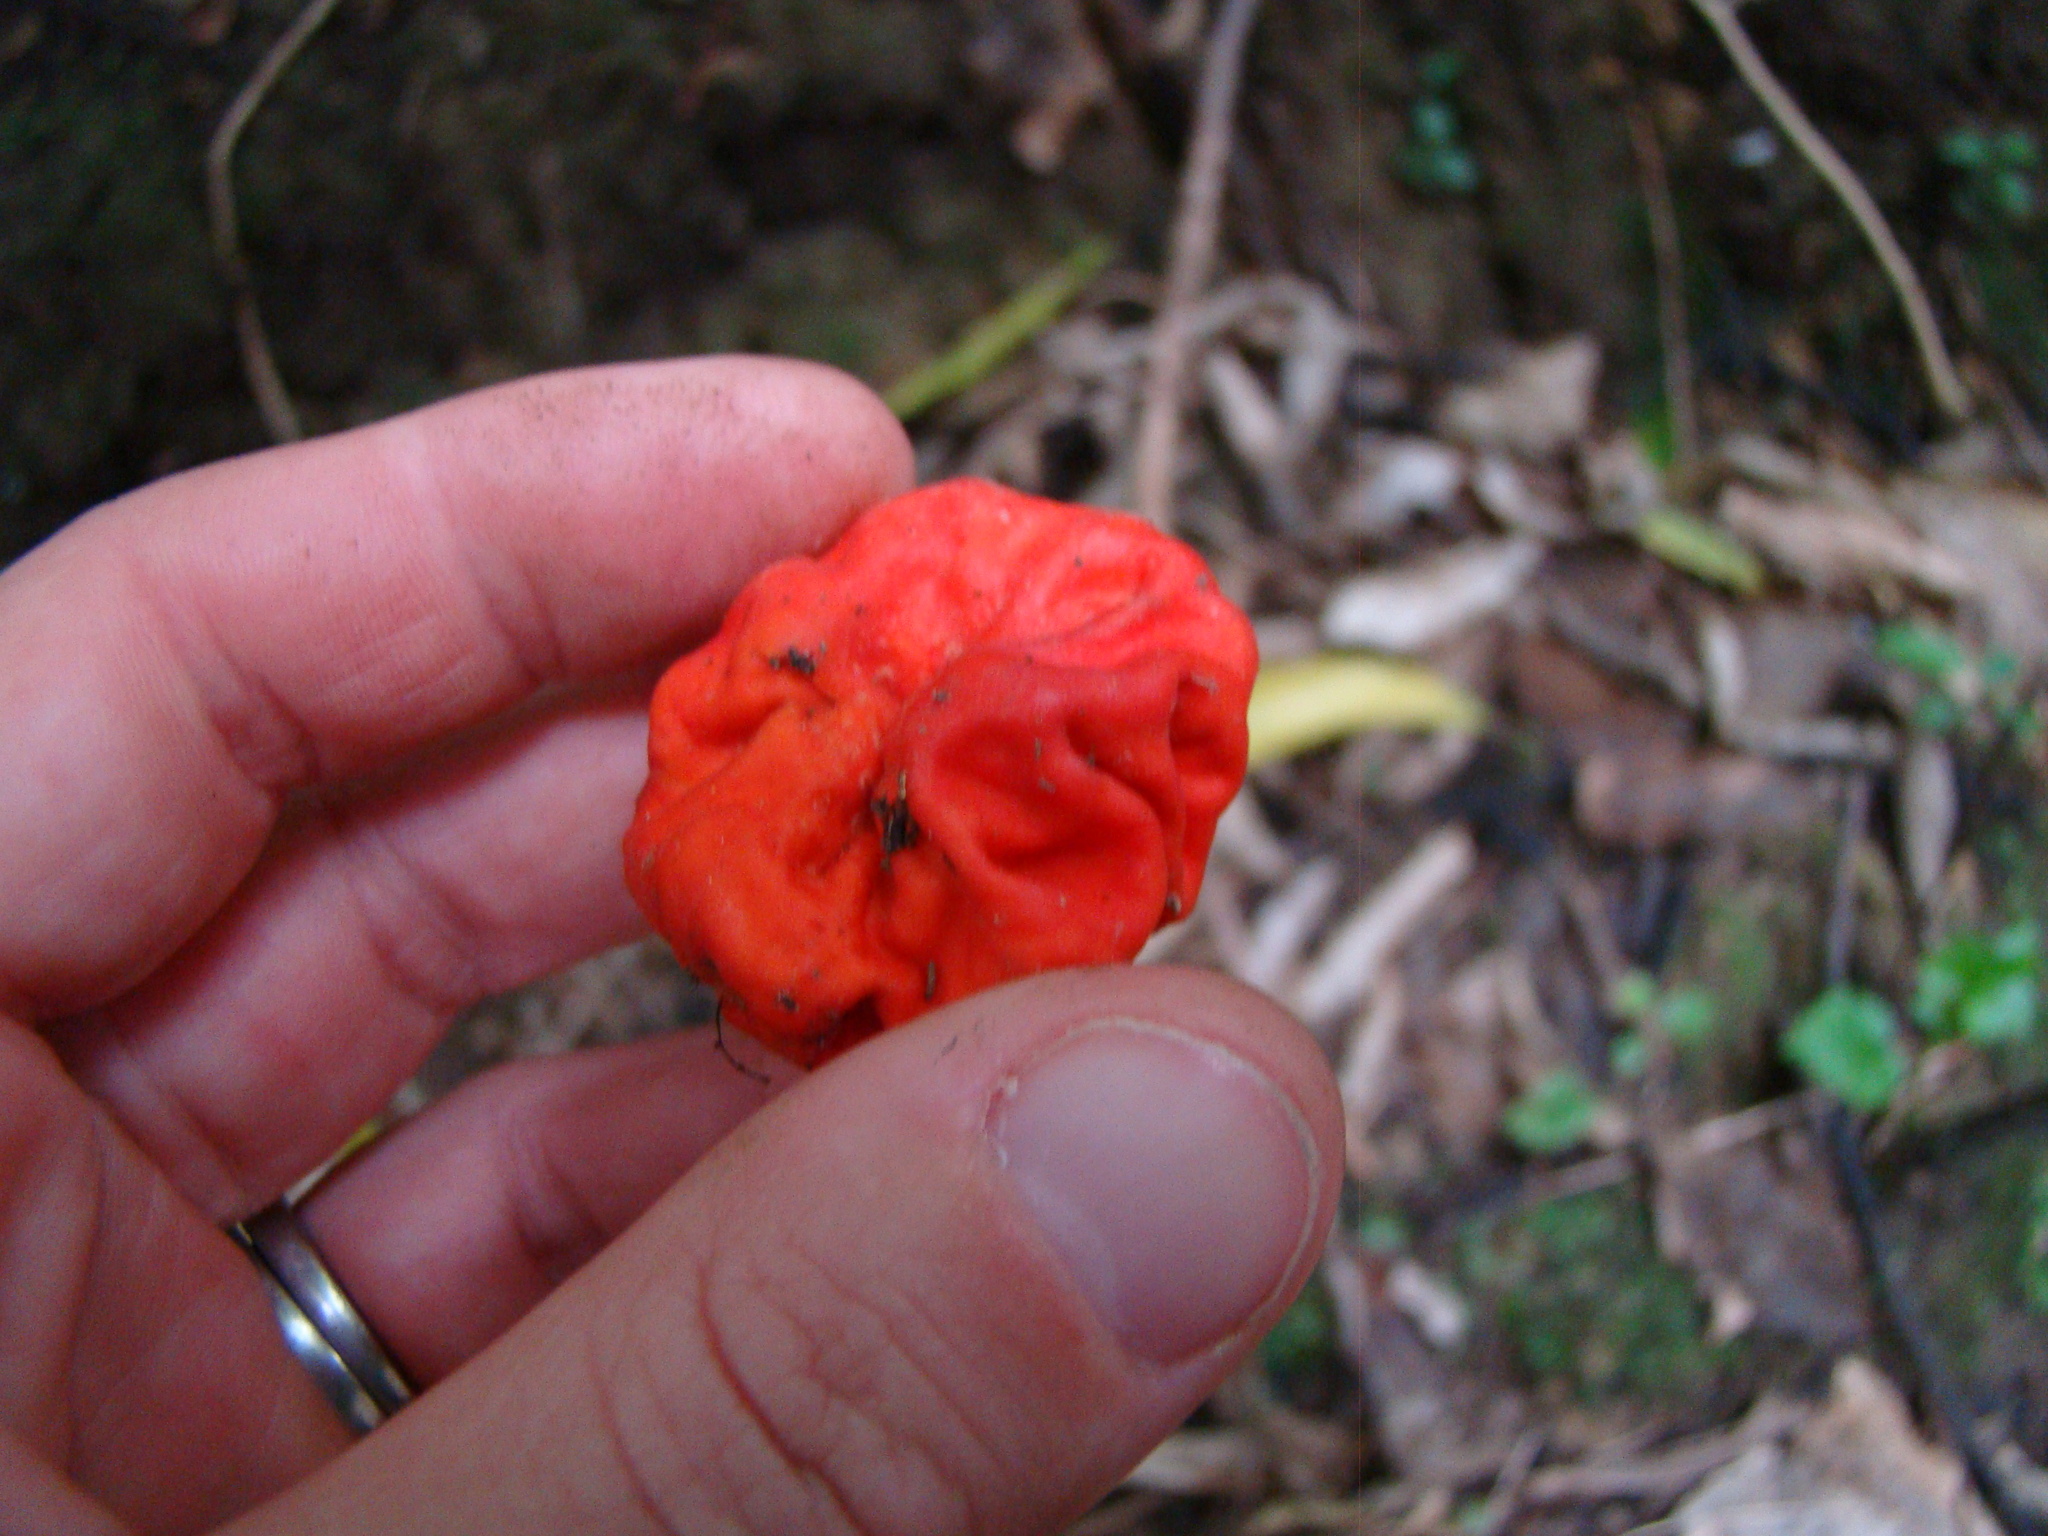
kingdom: Fungi
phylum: Ascomycota
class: Pezizomycetes
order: Pezizales
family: Pyronemataceae
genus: Paurocotylis
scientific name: Paurocotylis pila
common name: Scarlet berry truffle
